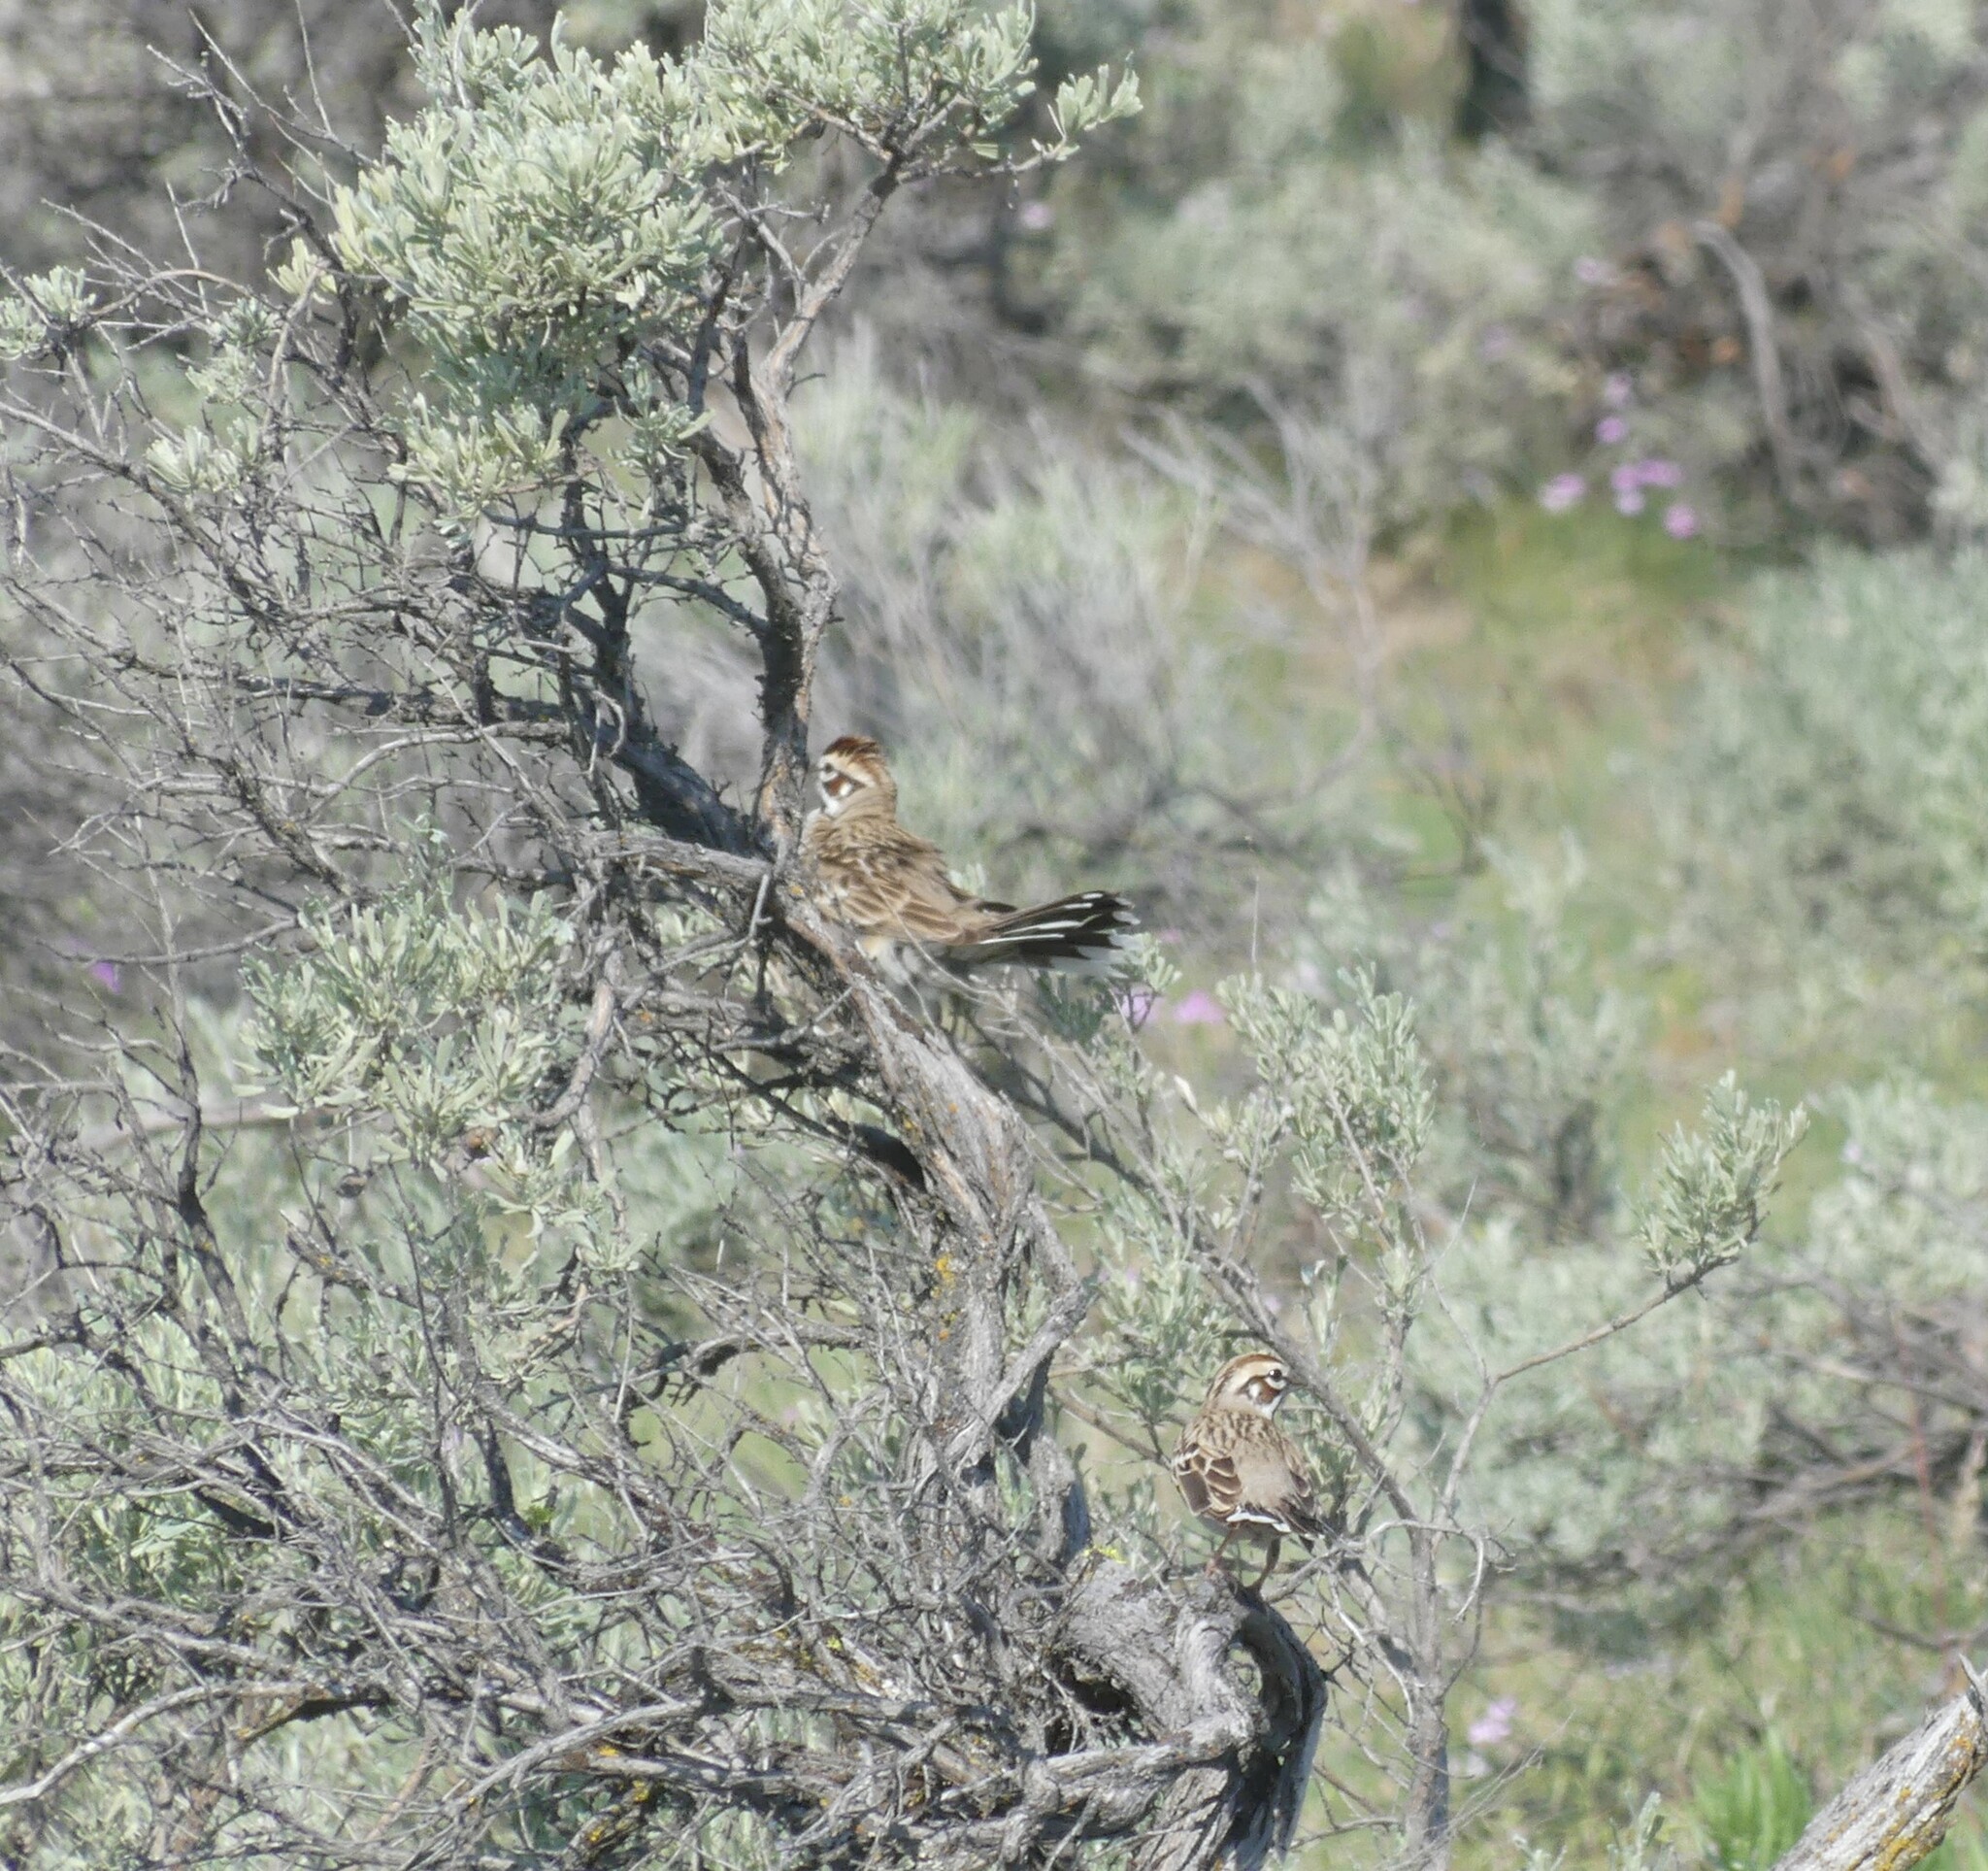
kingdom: Animalia
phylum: Chordata
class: Aves
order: Passeriformes
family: Passerellidae
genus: Chondestes
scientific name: Chondestes grammacus
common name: Lark sparrow
